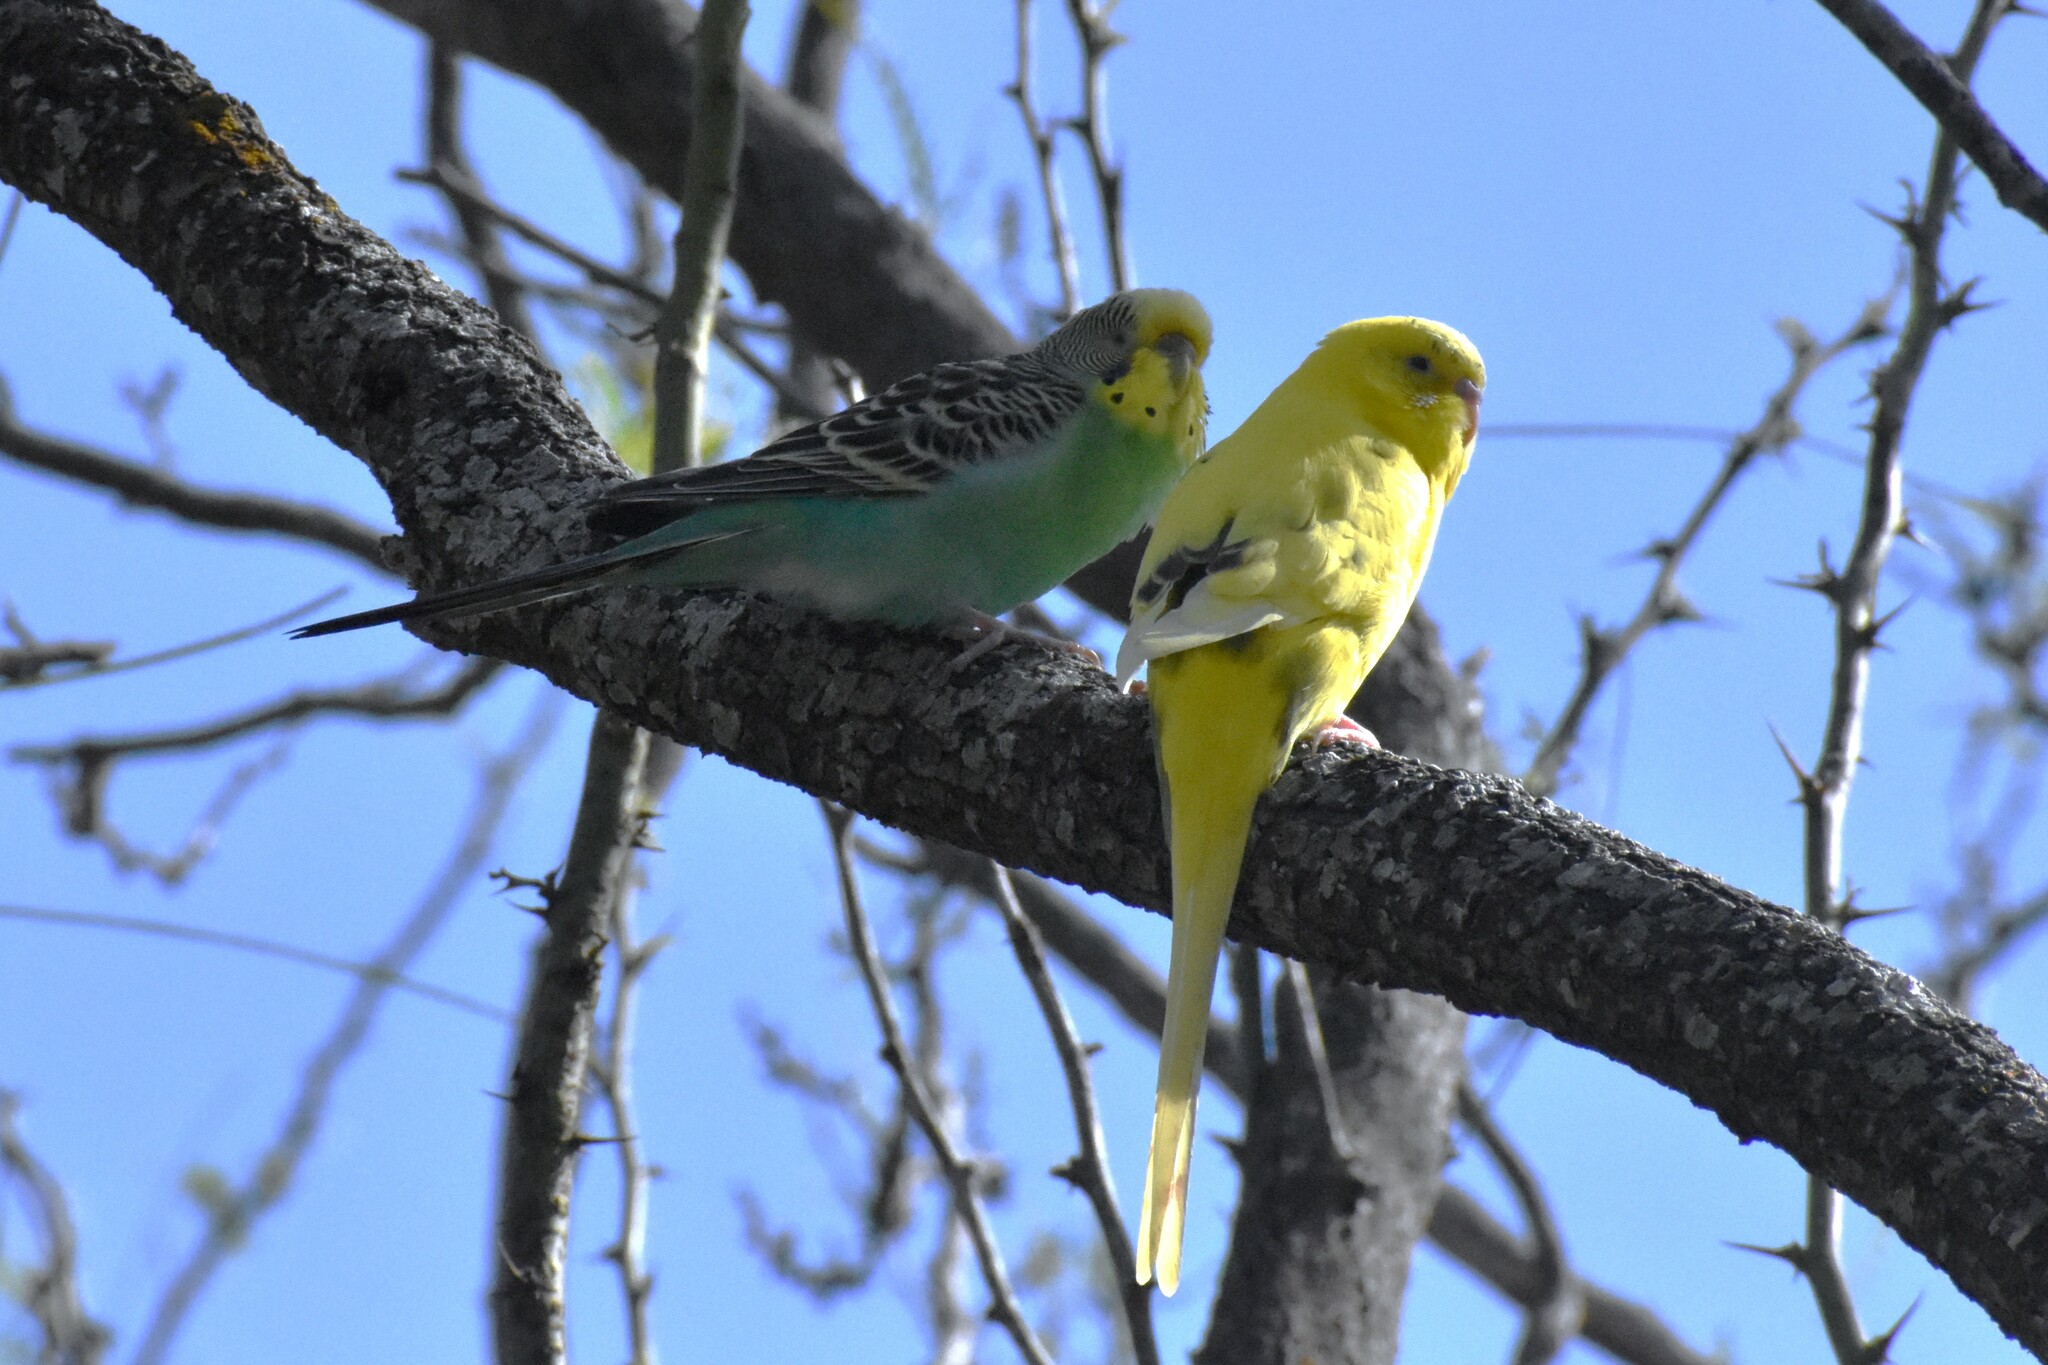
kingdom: Animalia
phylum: Chordata
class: Aves
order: Psittaciformes
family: Psittacidae
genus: Melopsittacus
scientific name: Melopsittacus undulatus
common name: Budgerigar
